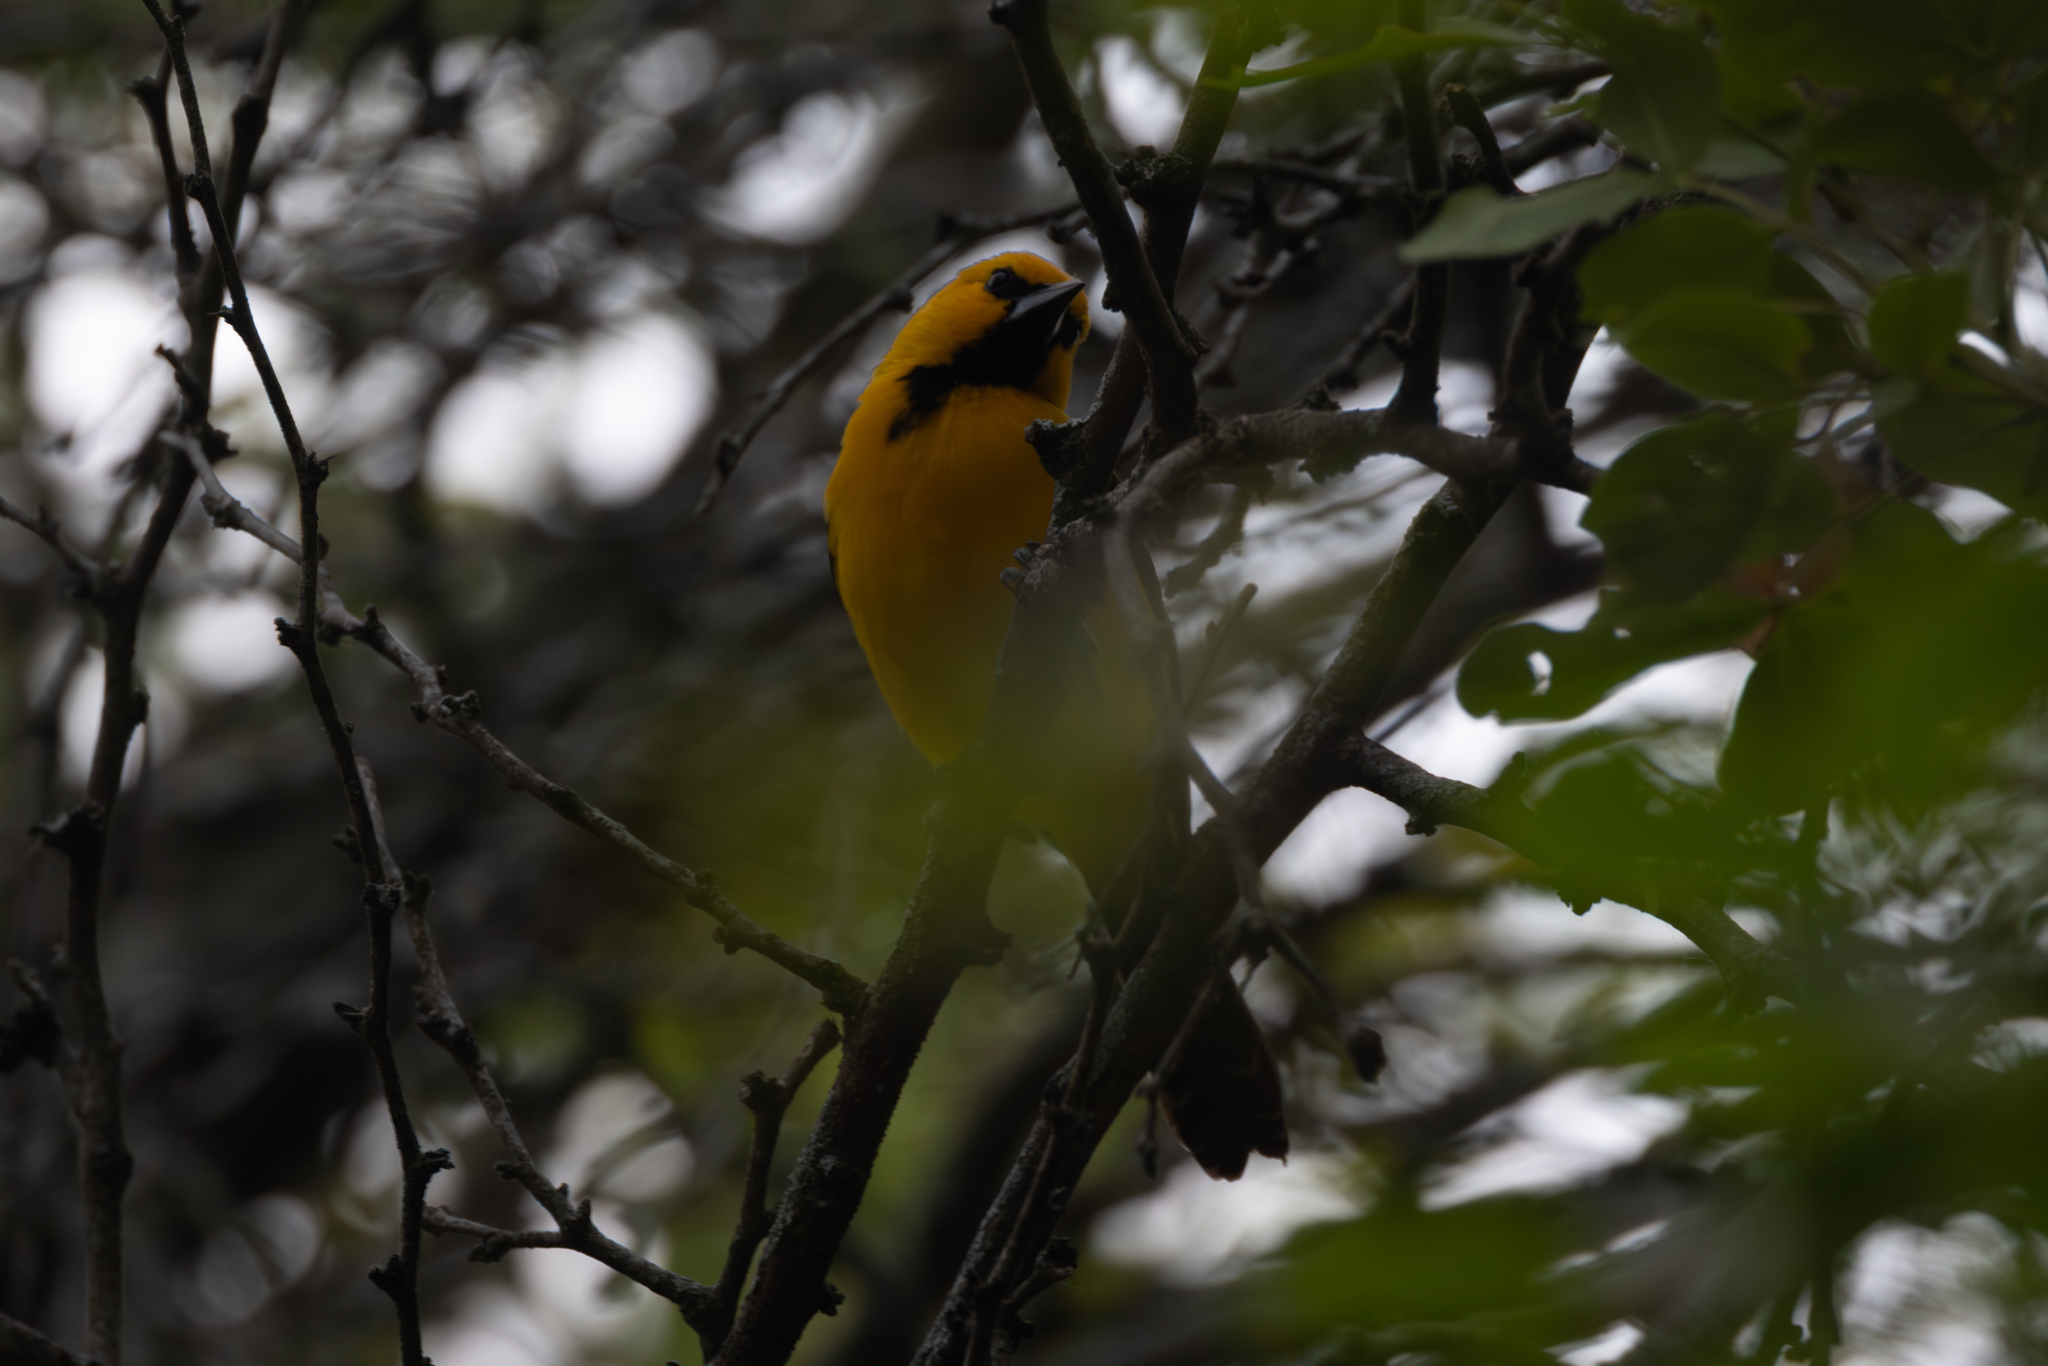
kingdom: Animalia
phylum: Chordata
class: Aves
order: Passeriformes
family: Icteridae
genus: Icterus
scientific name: Icterus nigrogularis
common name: Yellow oriole
